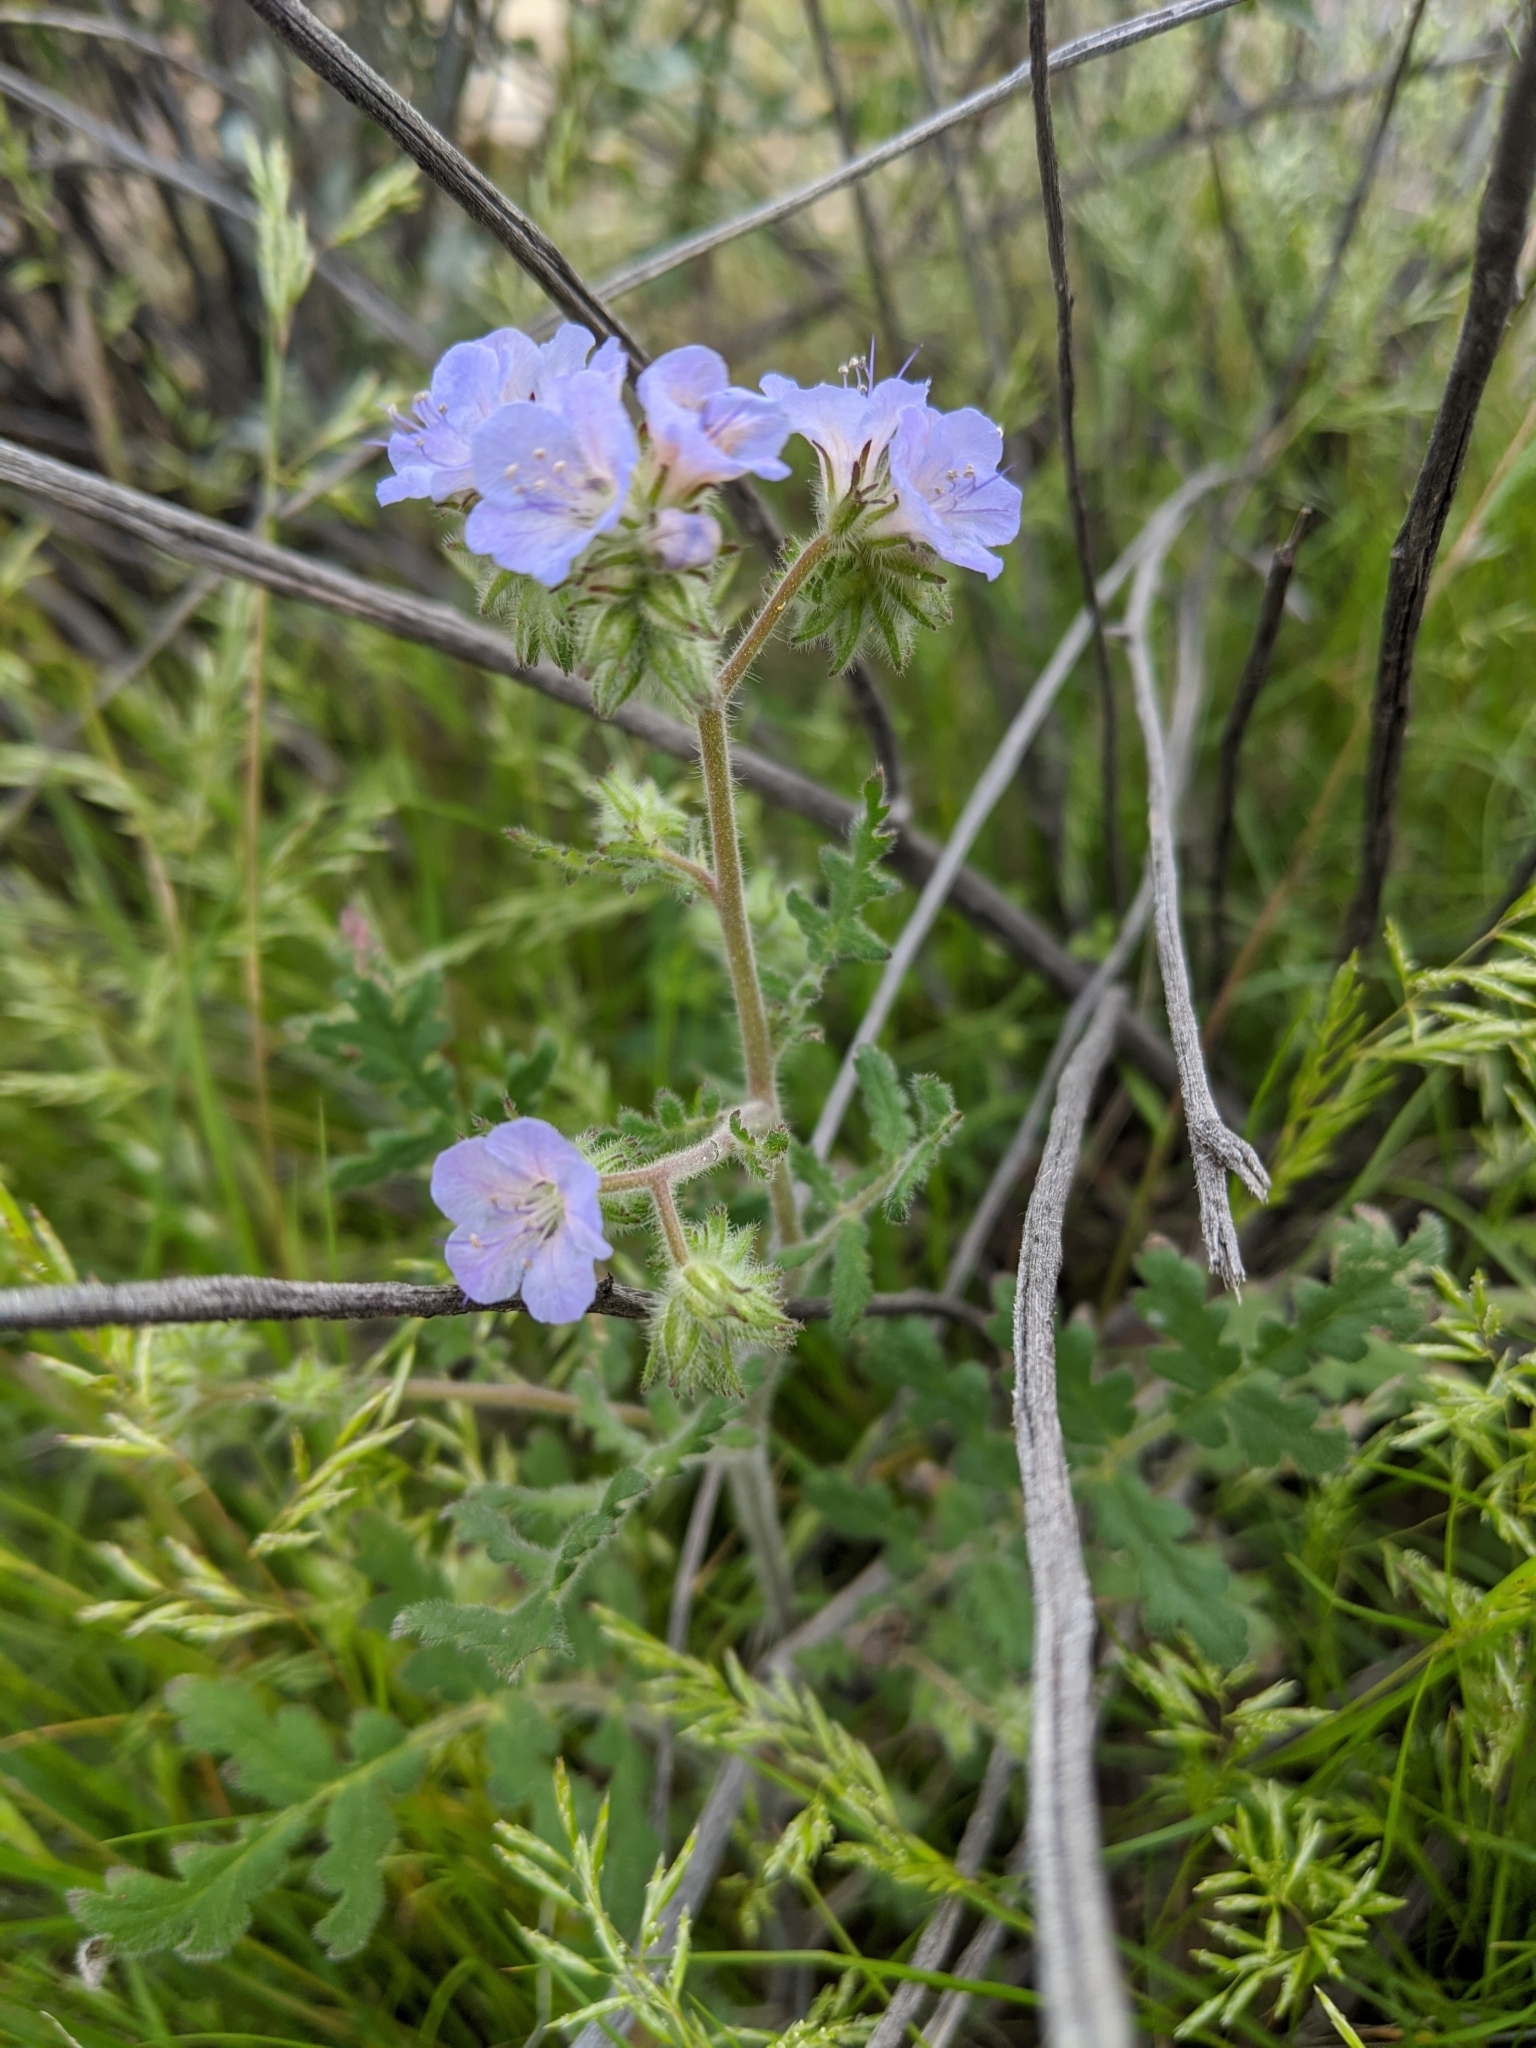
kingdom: Plantae
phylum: Tracheophyta
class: Magnoliopsida
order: Boraginales
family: Hydrophyllaceae
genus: Phacelia
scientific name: Phacelia distans
